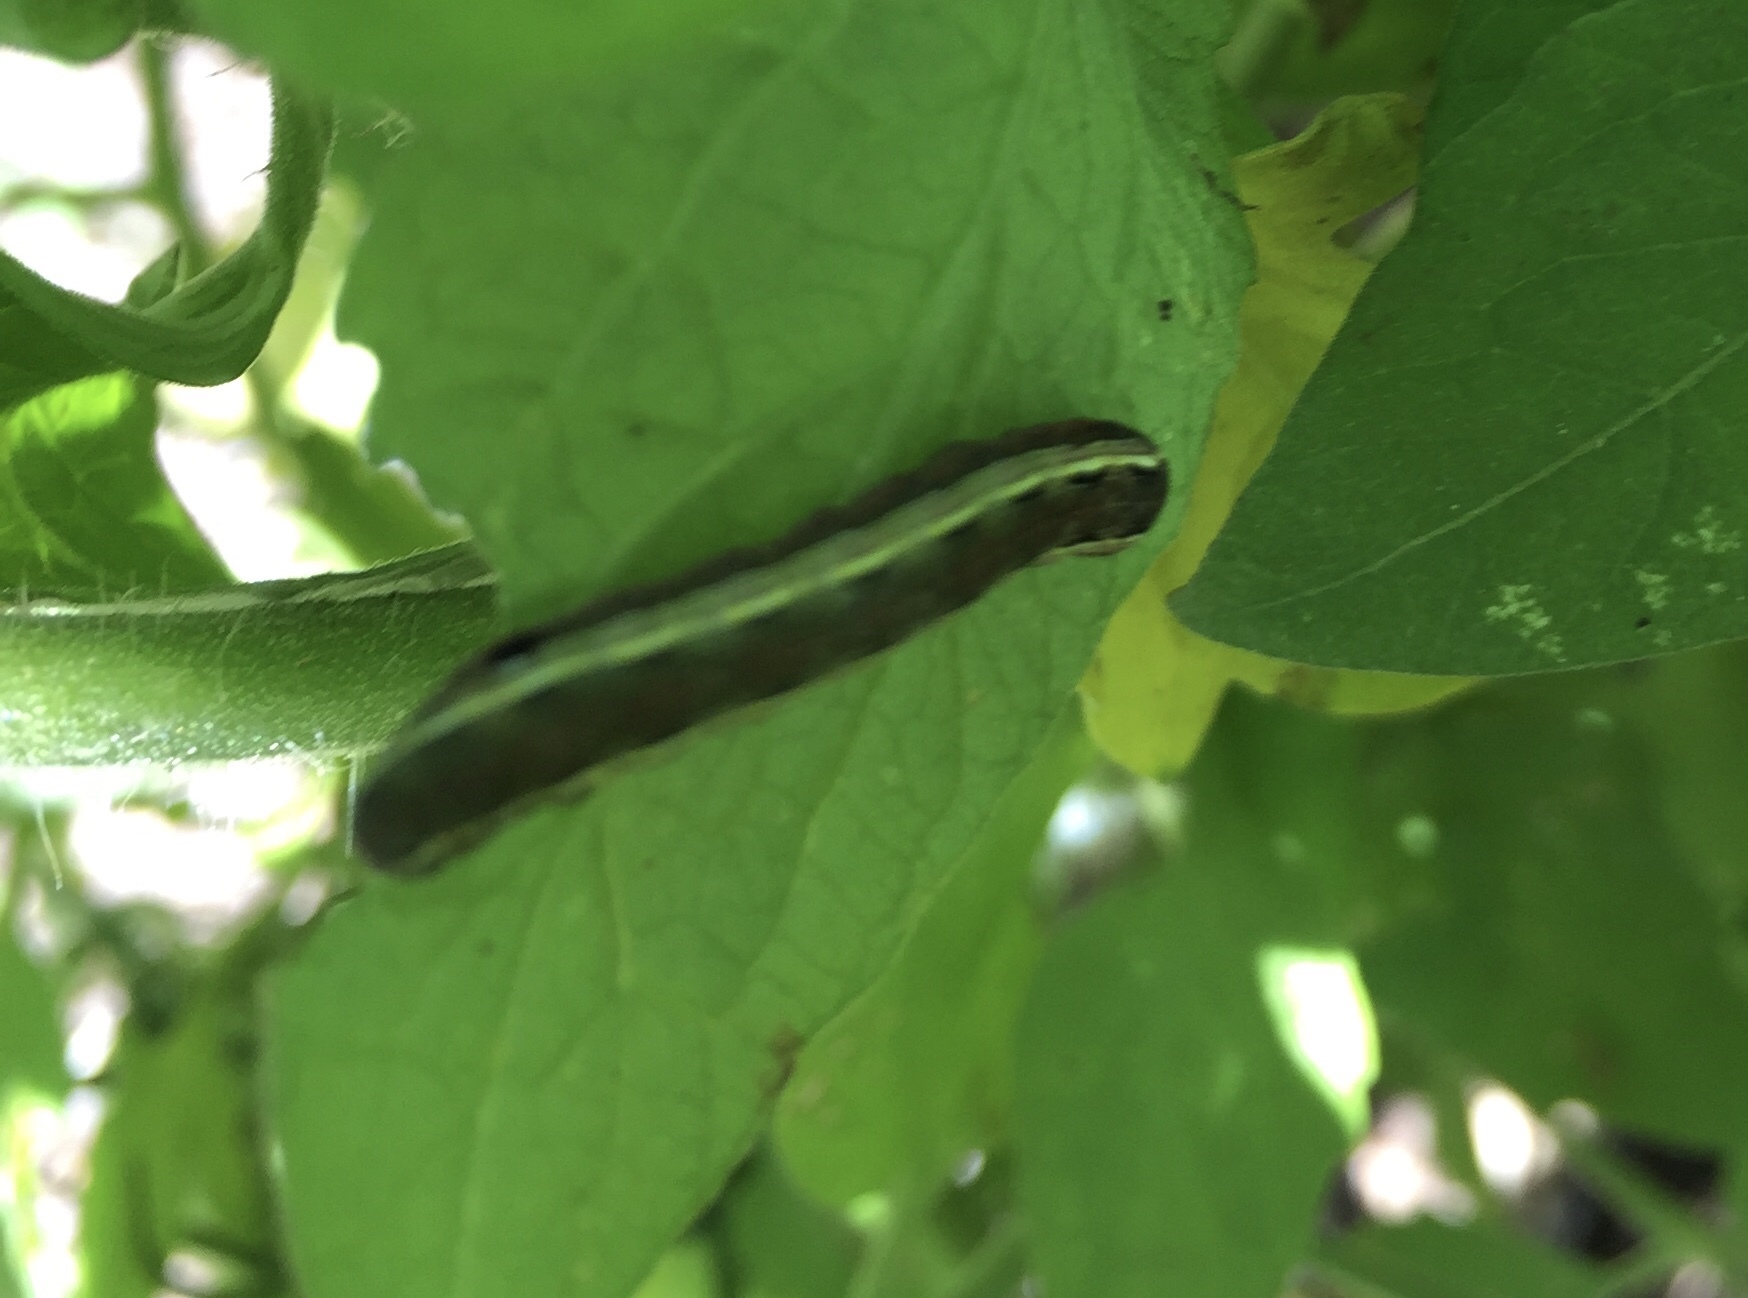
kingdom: Animalia
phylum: Arthropoda
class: Insecta
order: Lepidoptera
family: Noctuidae
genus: Spodoptera
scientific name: Spodoptera ornithogalli
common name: Yellow-striped armyworm
